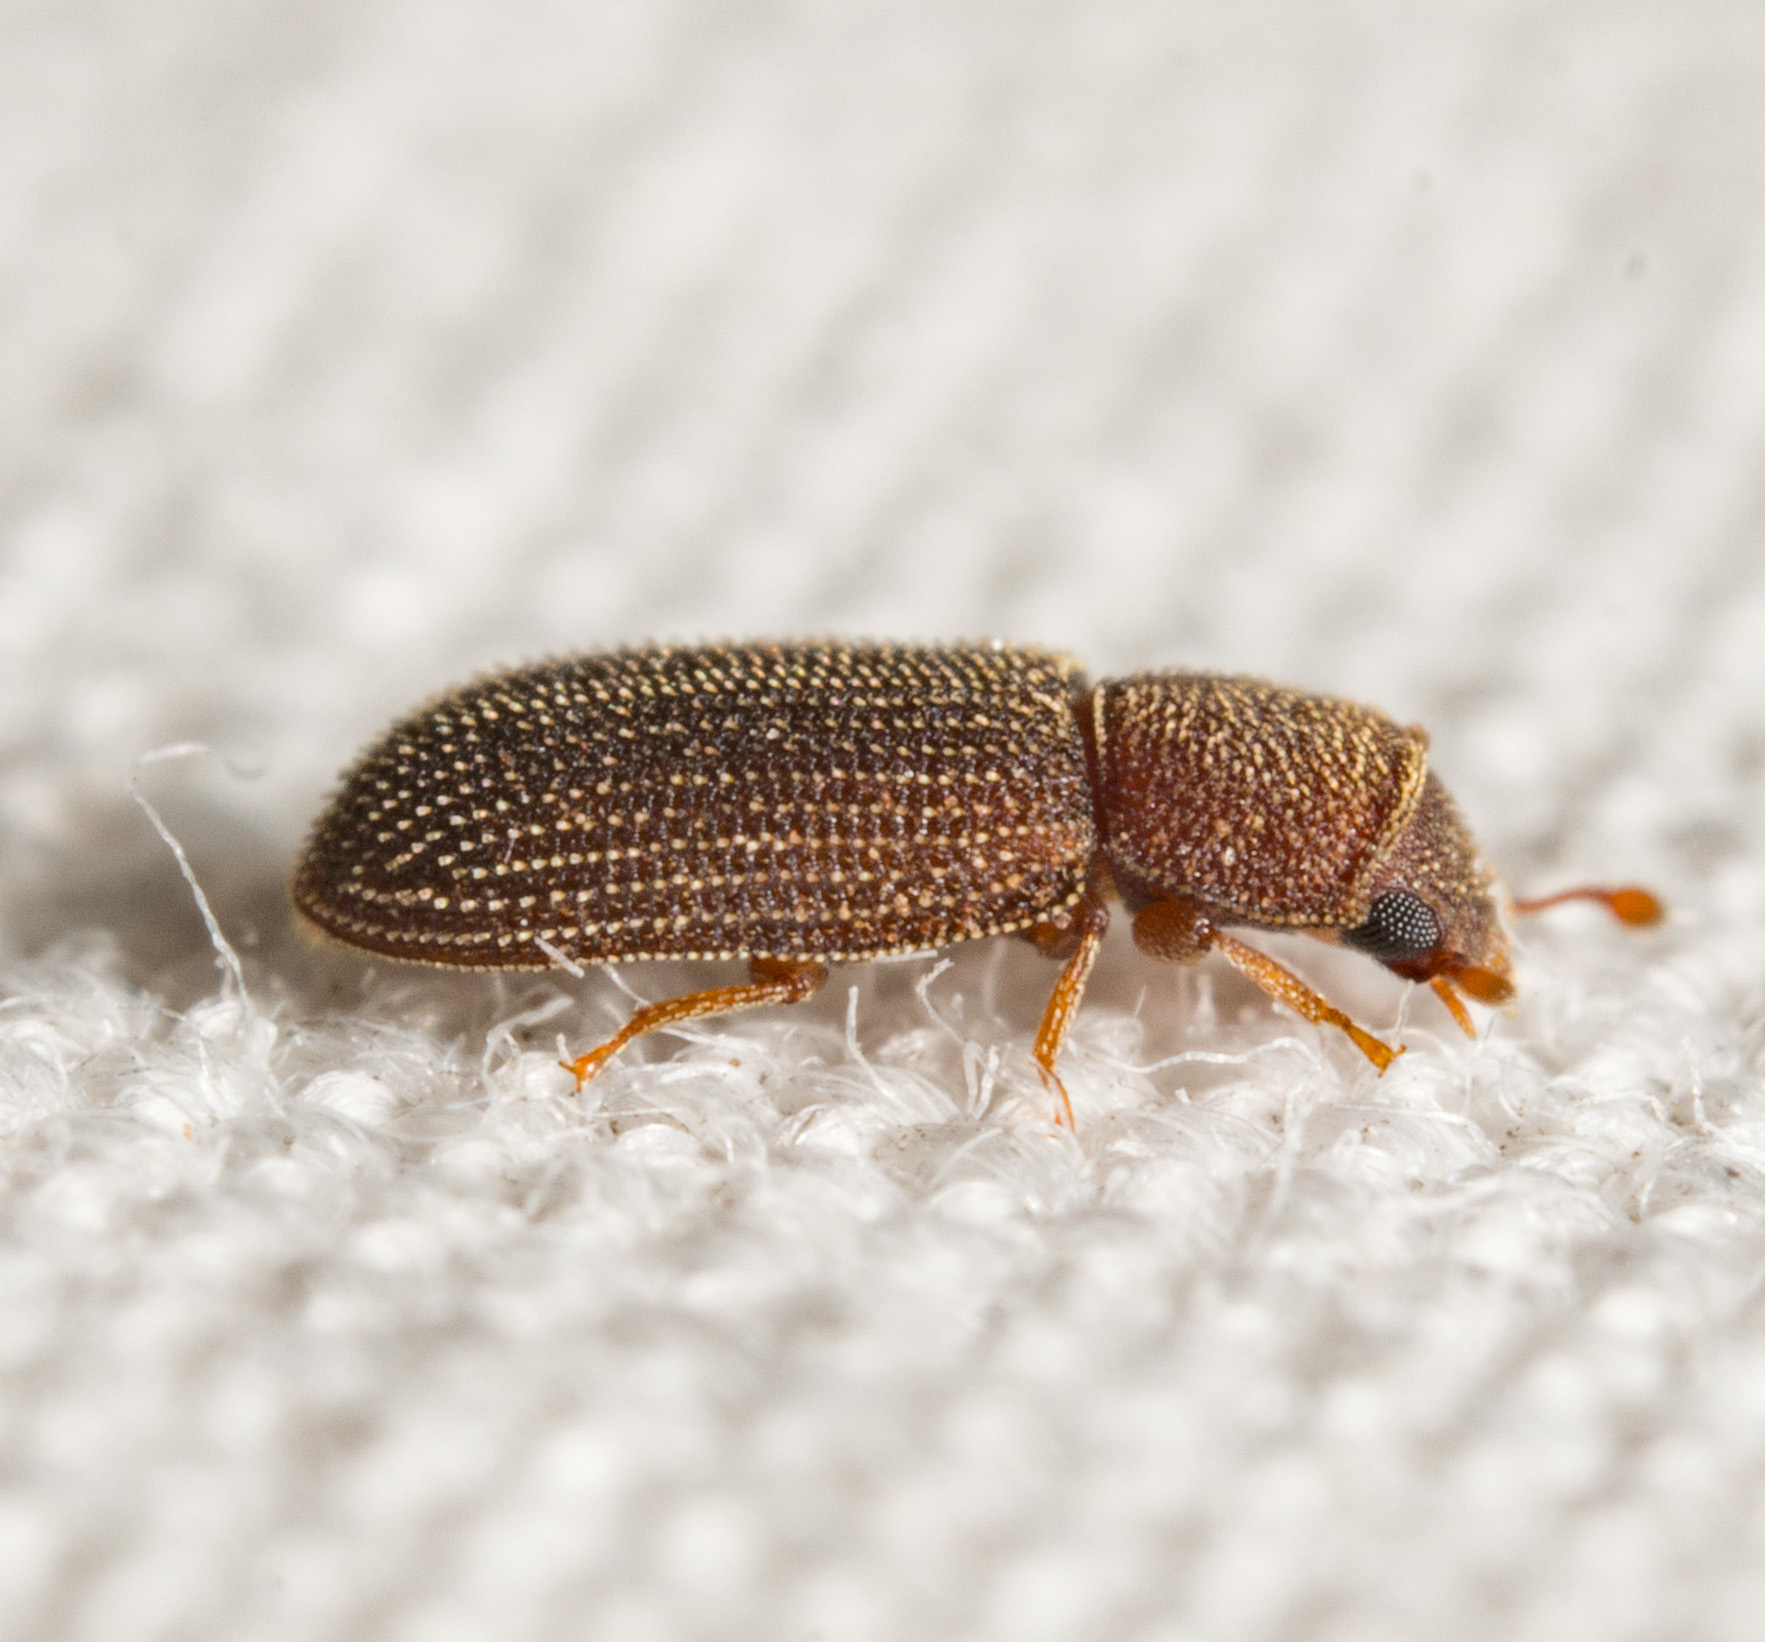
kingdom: Animalia
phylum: Arthropoda
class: Insecta
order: Coleoptera
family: Zopheridae
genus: Synchita
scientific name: Synchita fuliginosa
